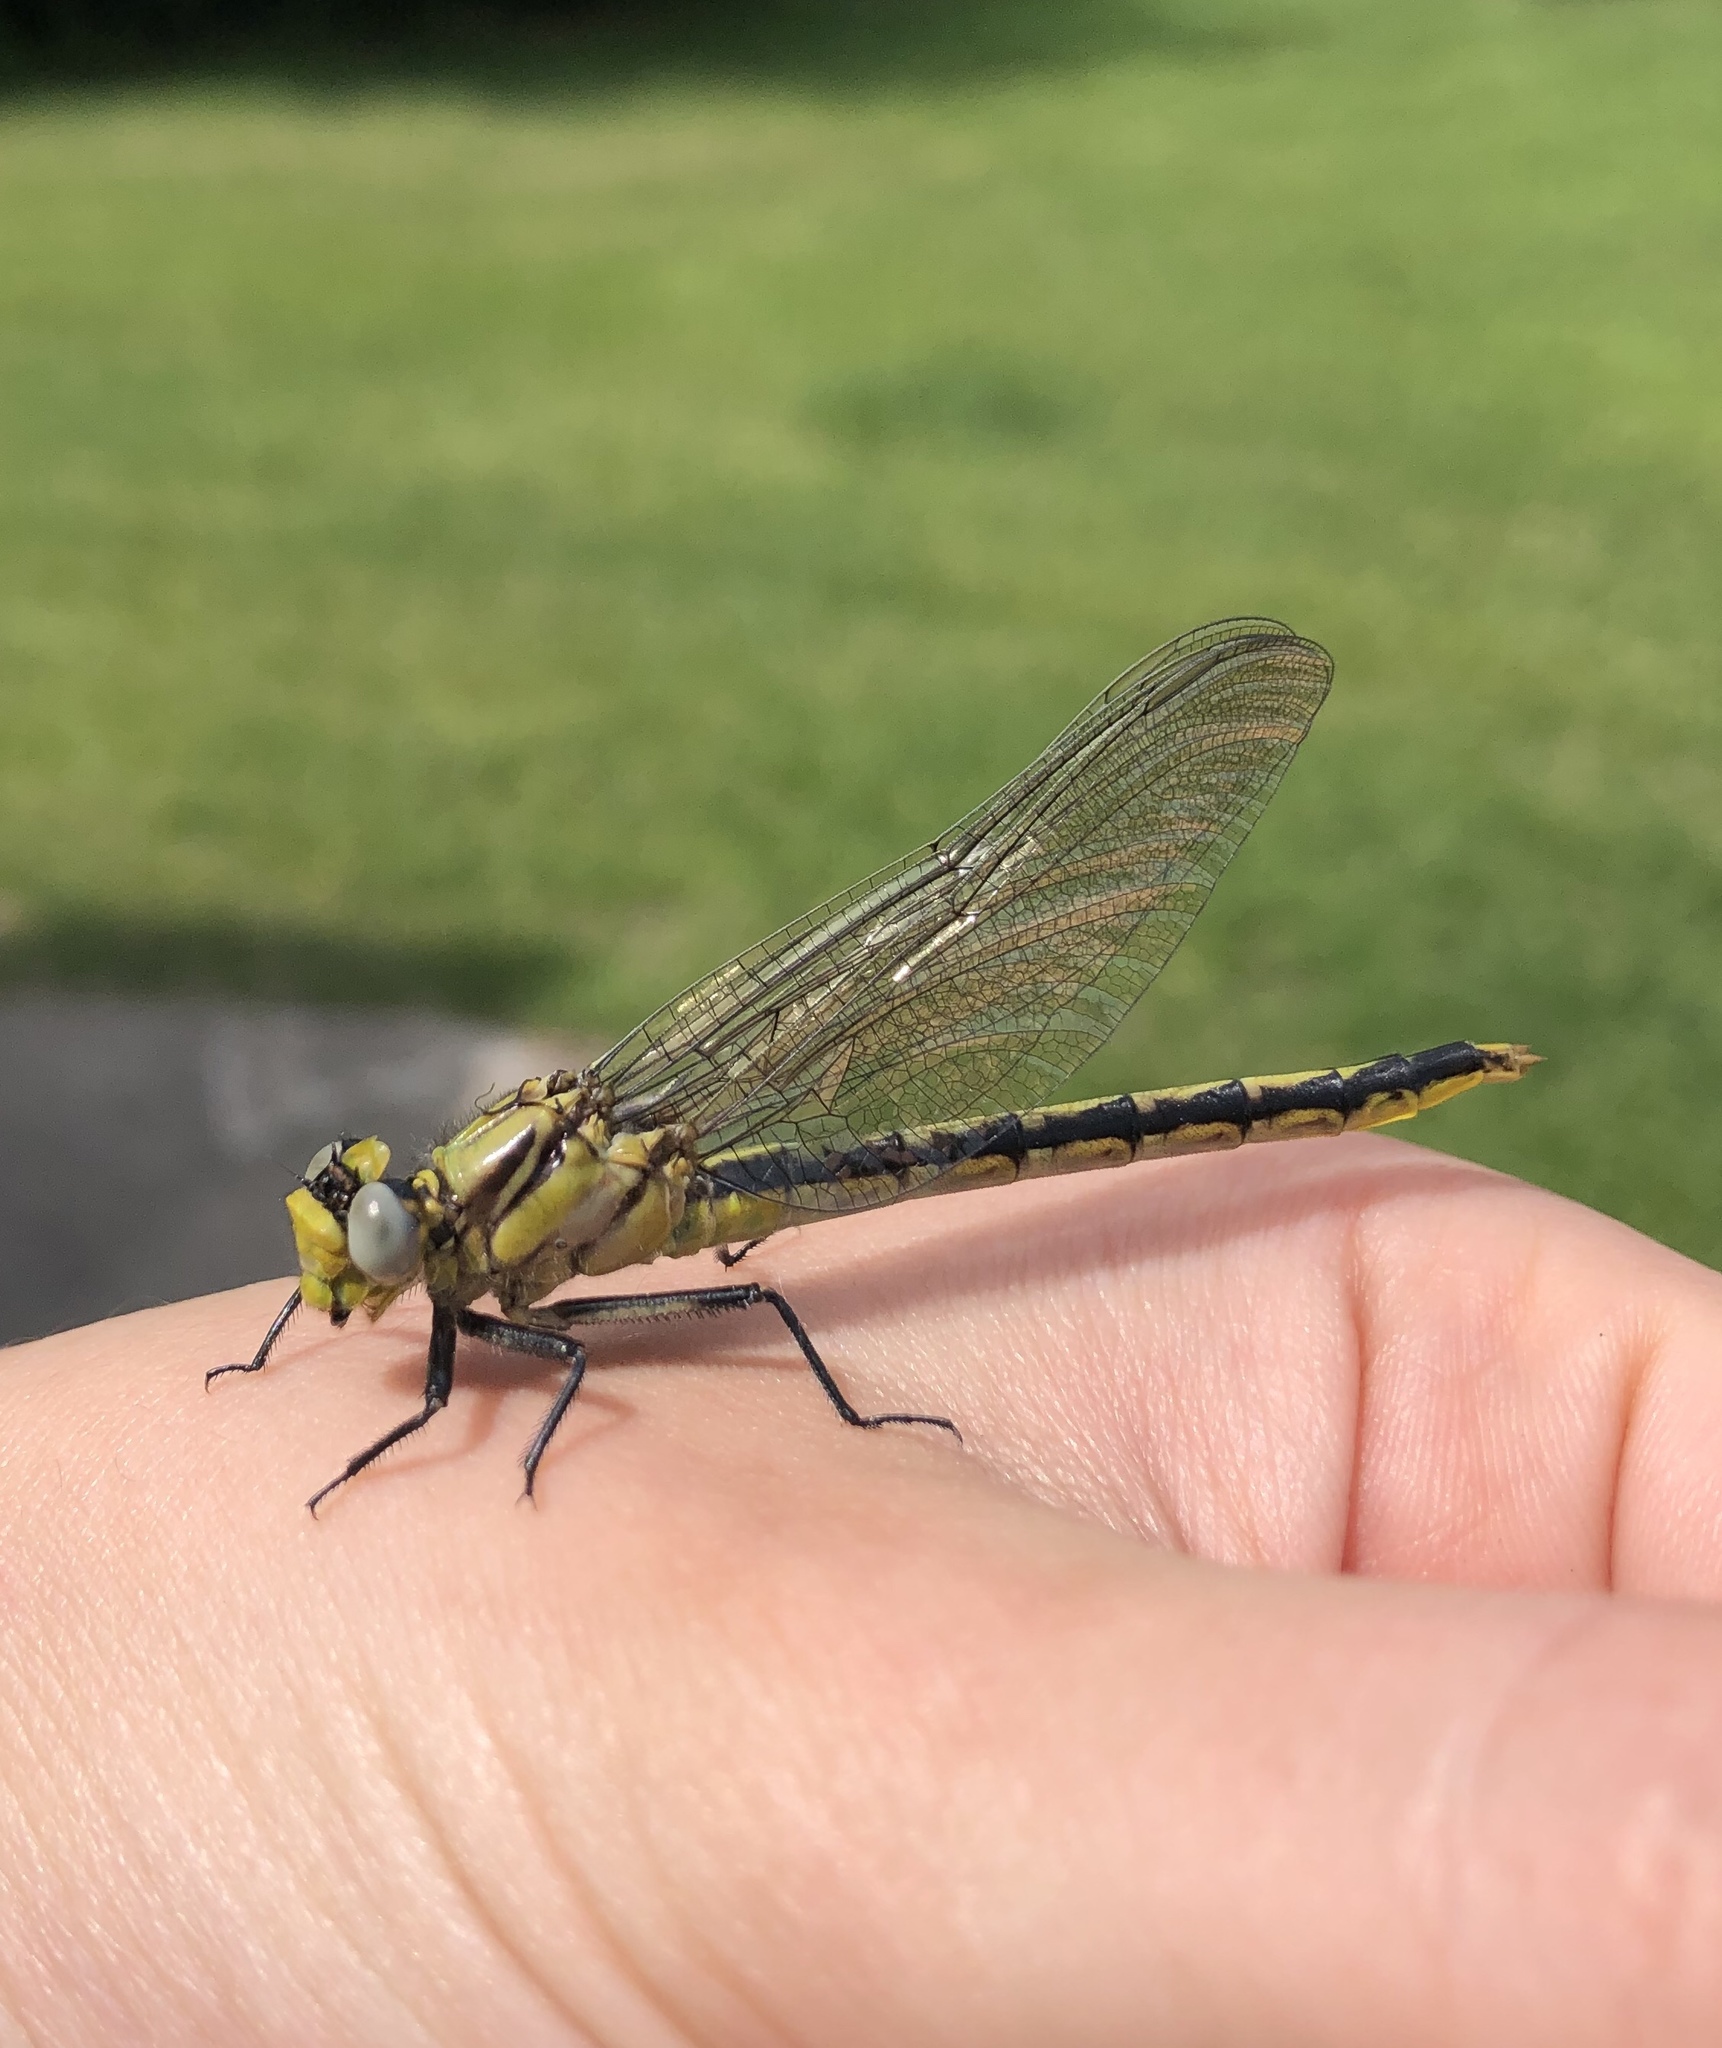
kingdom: Animalia
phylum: Arthropoda
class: Insecta
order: Odonata
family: Gomphidae
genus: Arigomphus
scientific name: Arigomphus cornutus
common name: Horned clubtail
